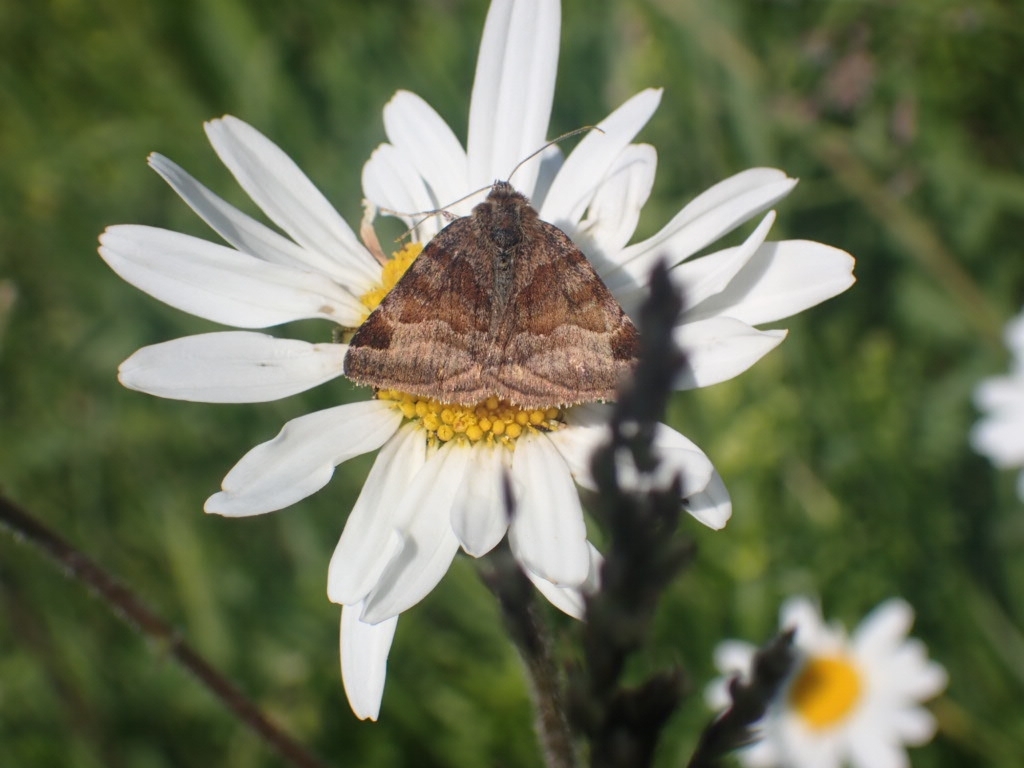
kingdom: Animalia
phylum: Arthropoda
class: Insecta
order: Lepidoptera
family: Erebidae
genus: Euclidia
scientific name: Euclidia glyphica
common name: Burnet companion
